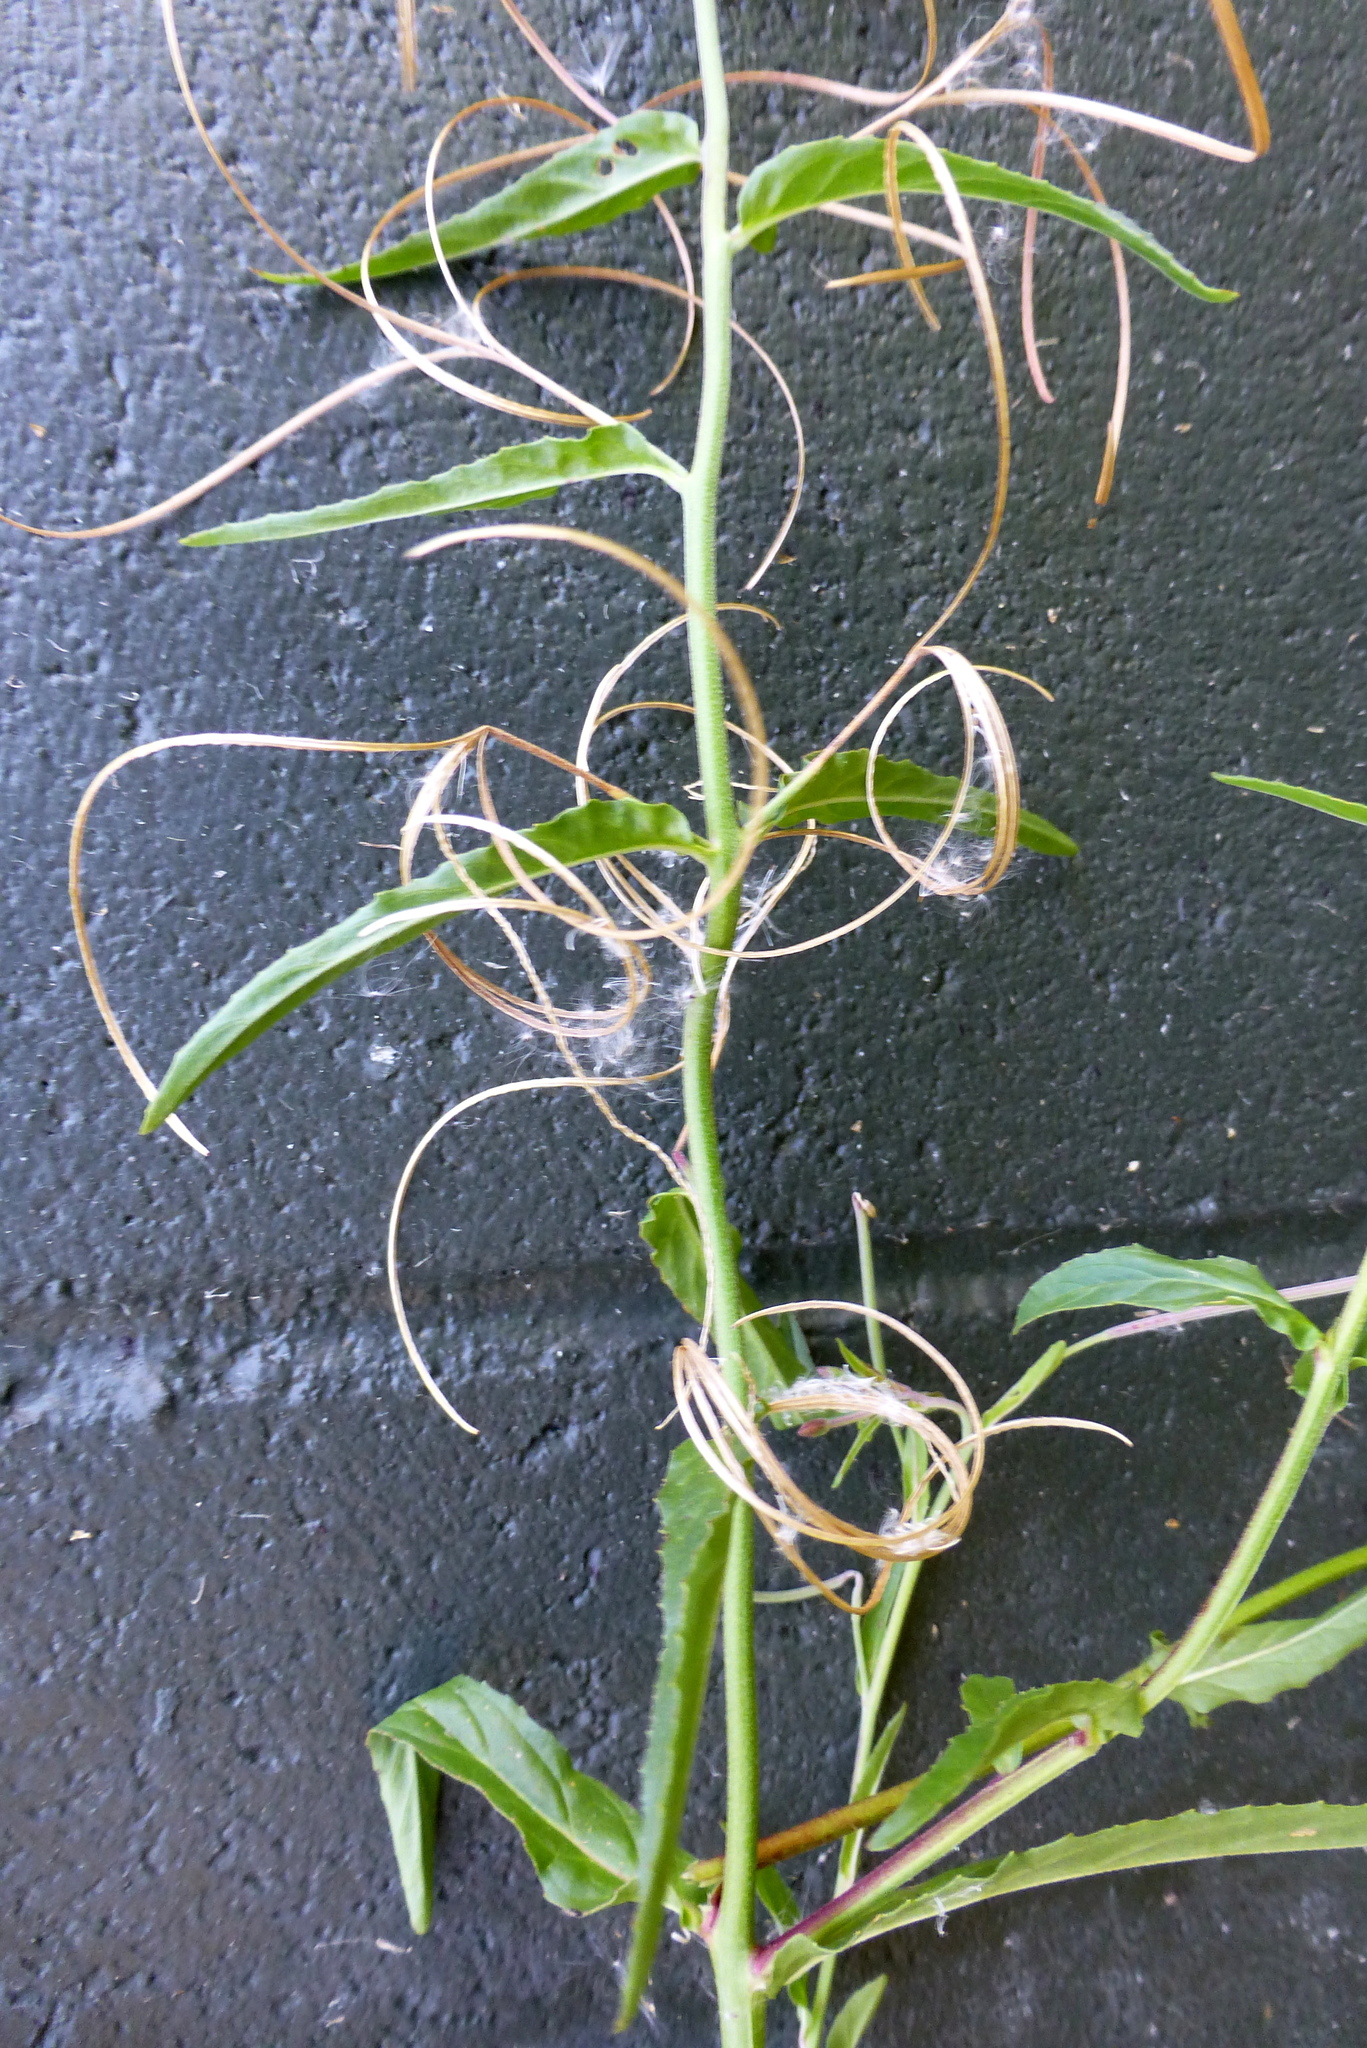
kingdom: Plantae
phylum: Tracheophyta
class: Magnoliopsida
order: Myrtales
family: Onagraceae
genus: Epilobium
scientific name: Epilobium ciliatum
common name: American willowherb
